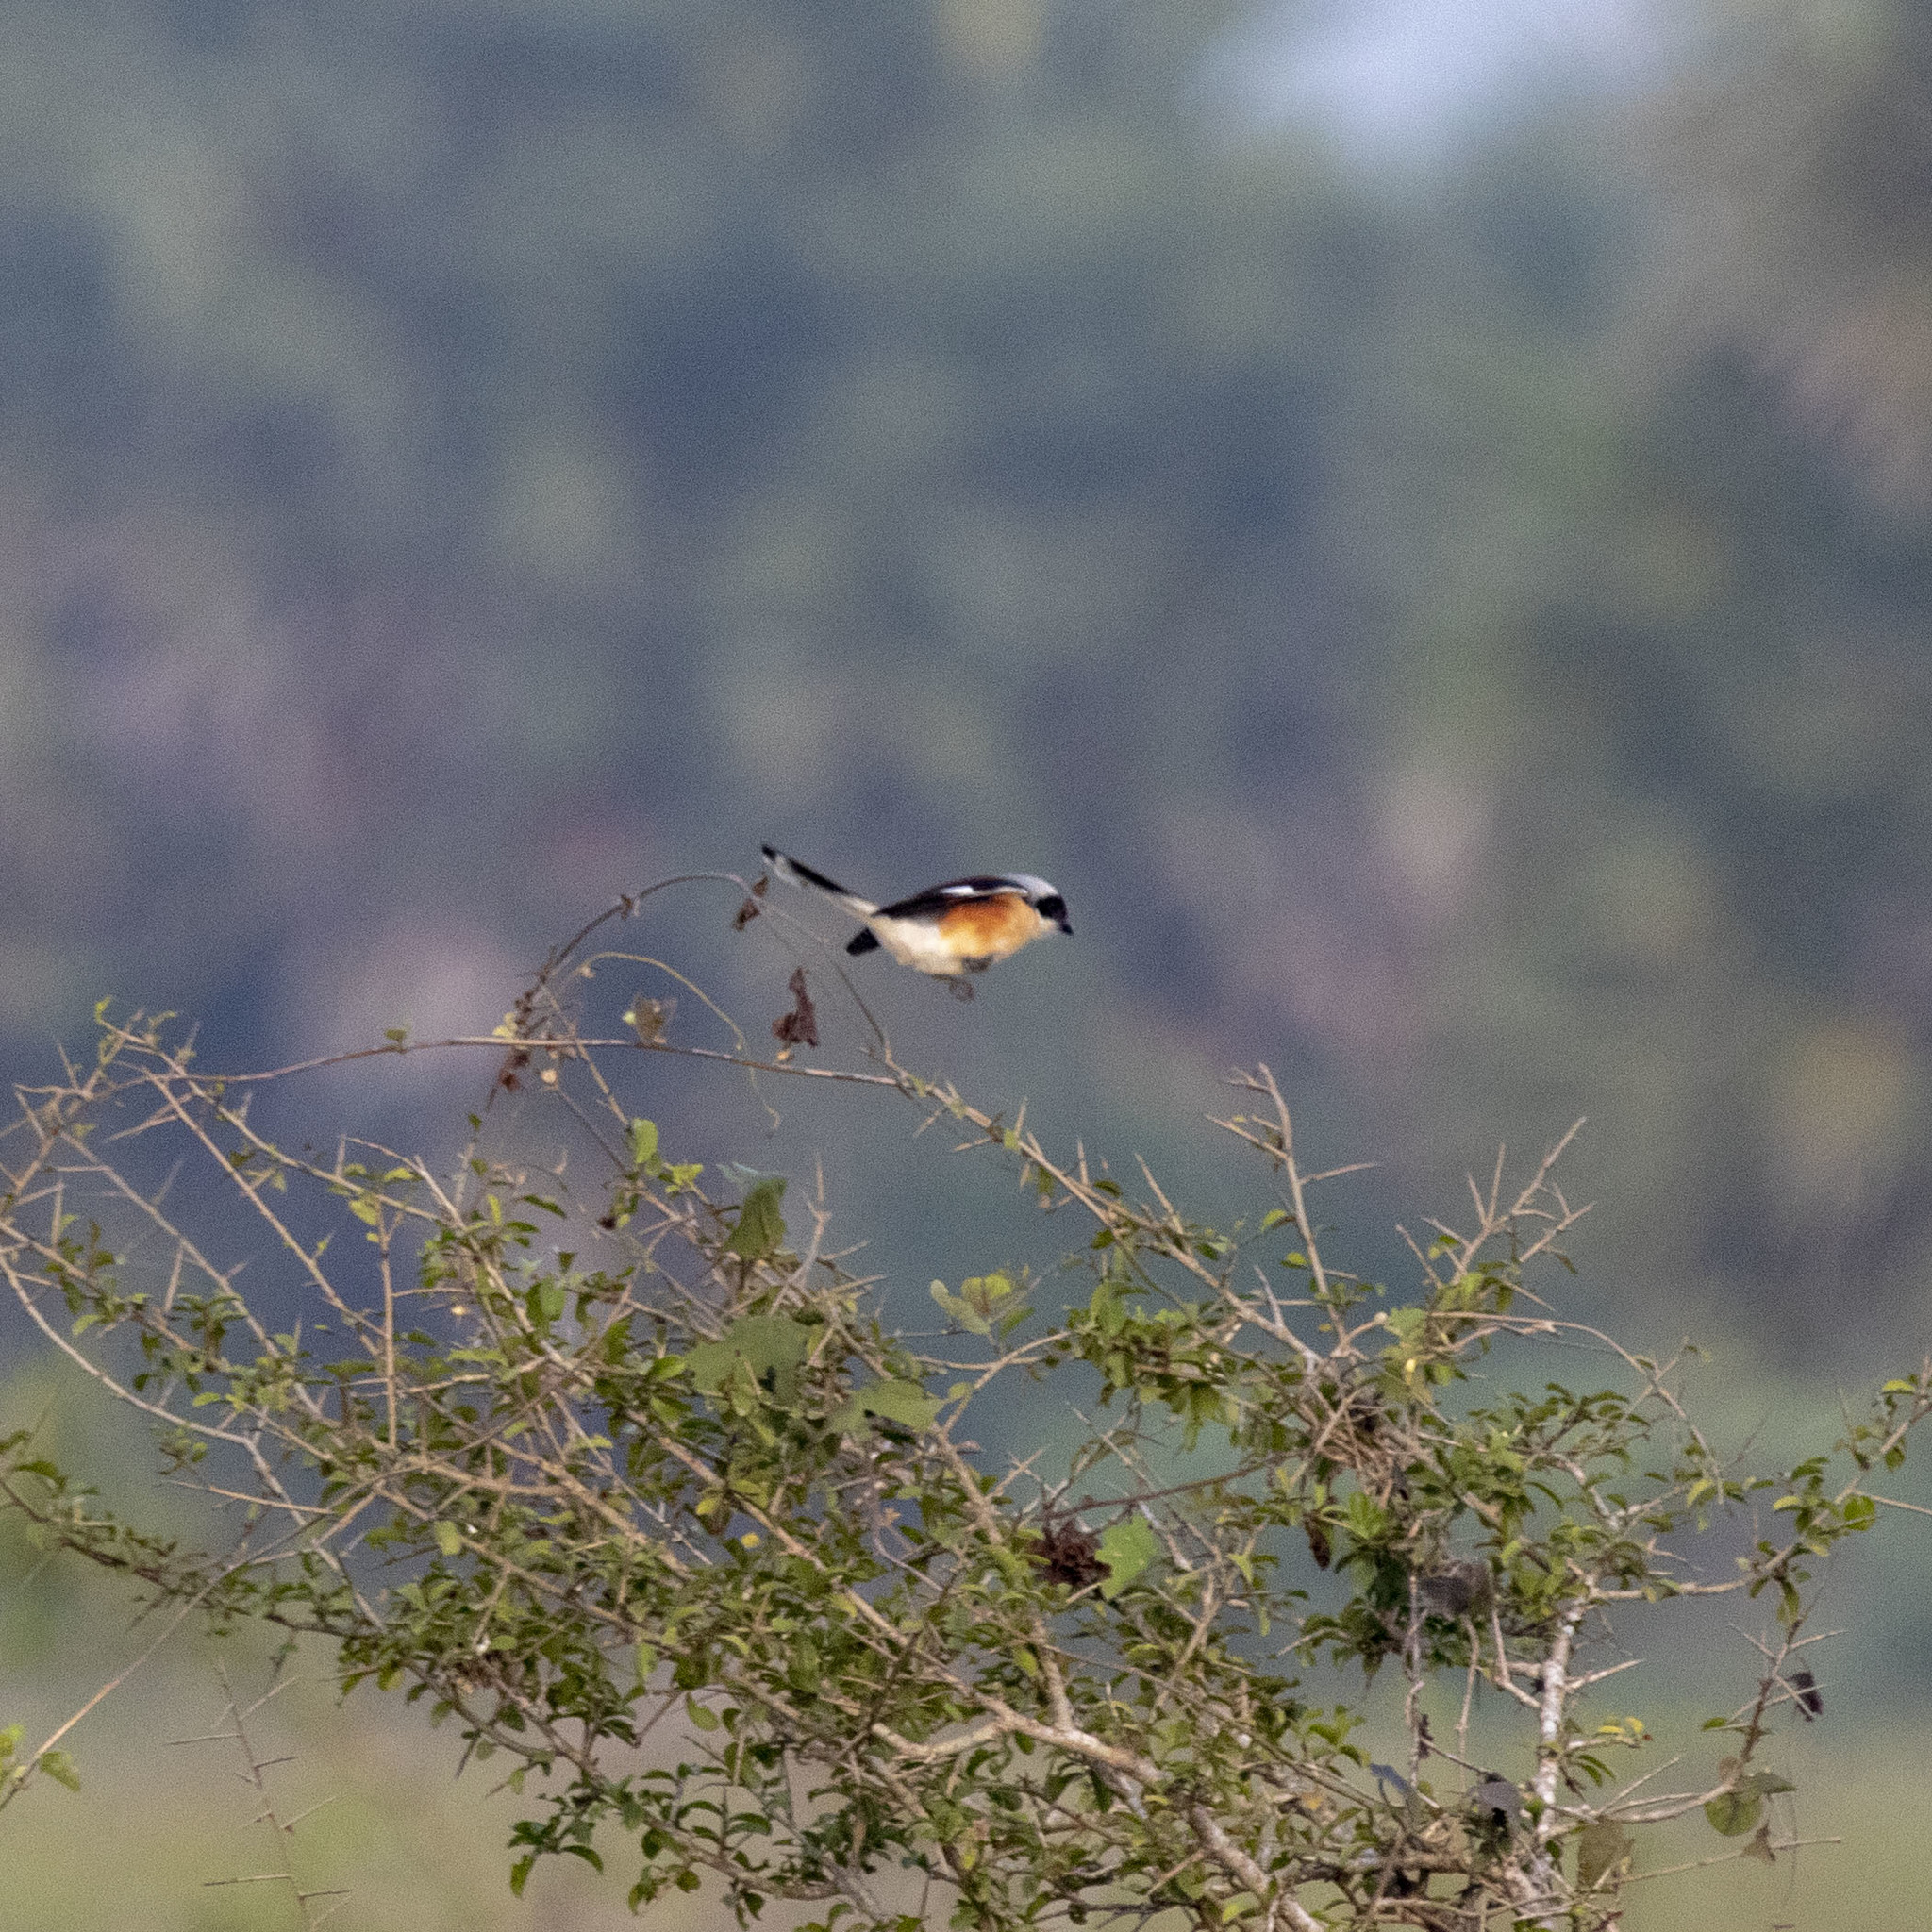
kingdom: Animalia
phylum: Chordata
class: Aves
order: Passeriformes
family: Laniidae
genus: Lanius
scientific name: Lanius vittatus
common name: Bay-backed shrike
